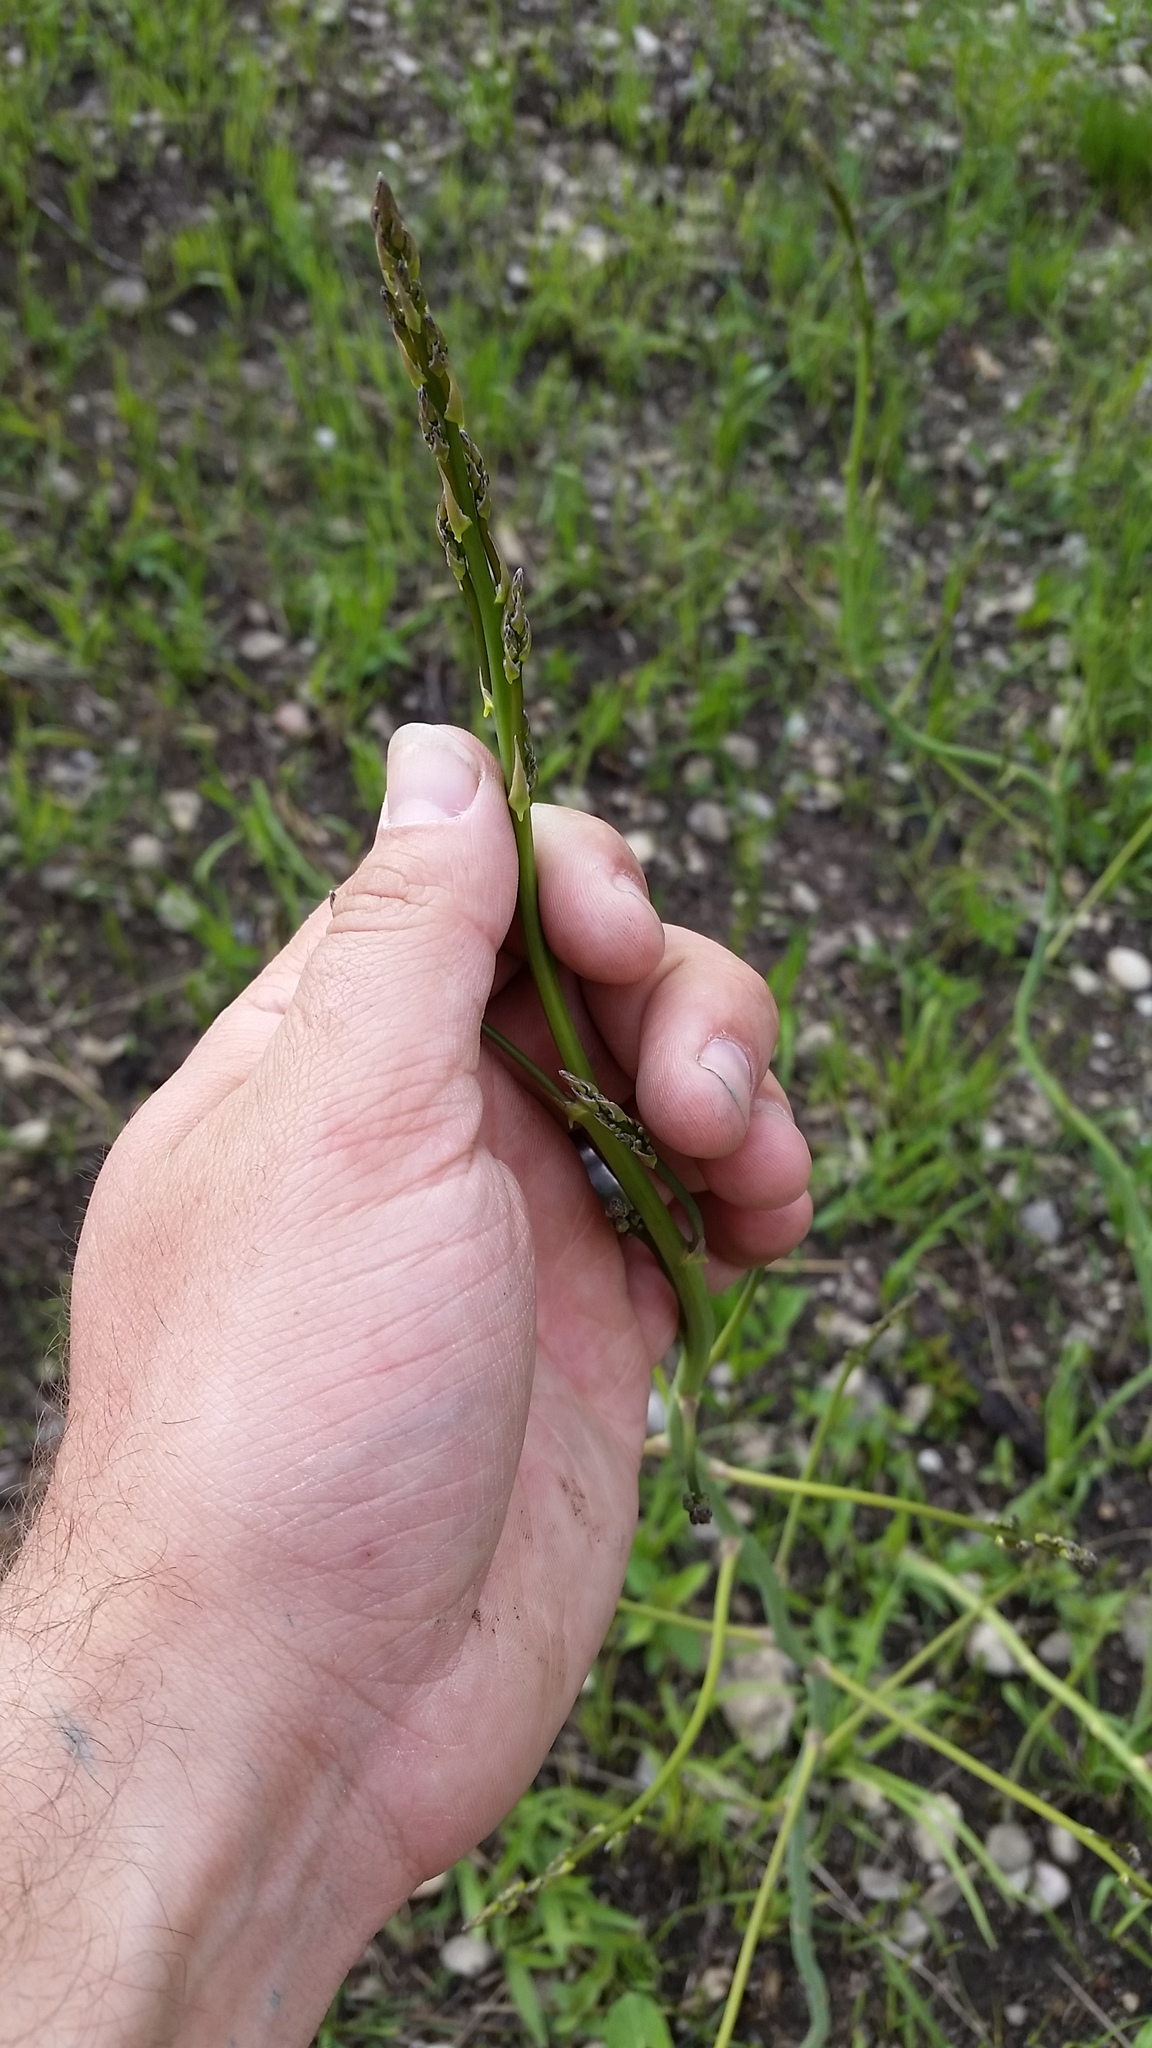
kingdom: Plantae
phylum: Tracheophyta
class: Liliopsida
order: Asparagales
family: Asparagaceae
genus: Asparagus
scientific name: Asparagus officinalis
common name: Garden asparagus
